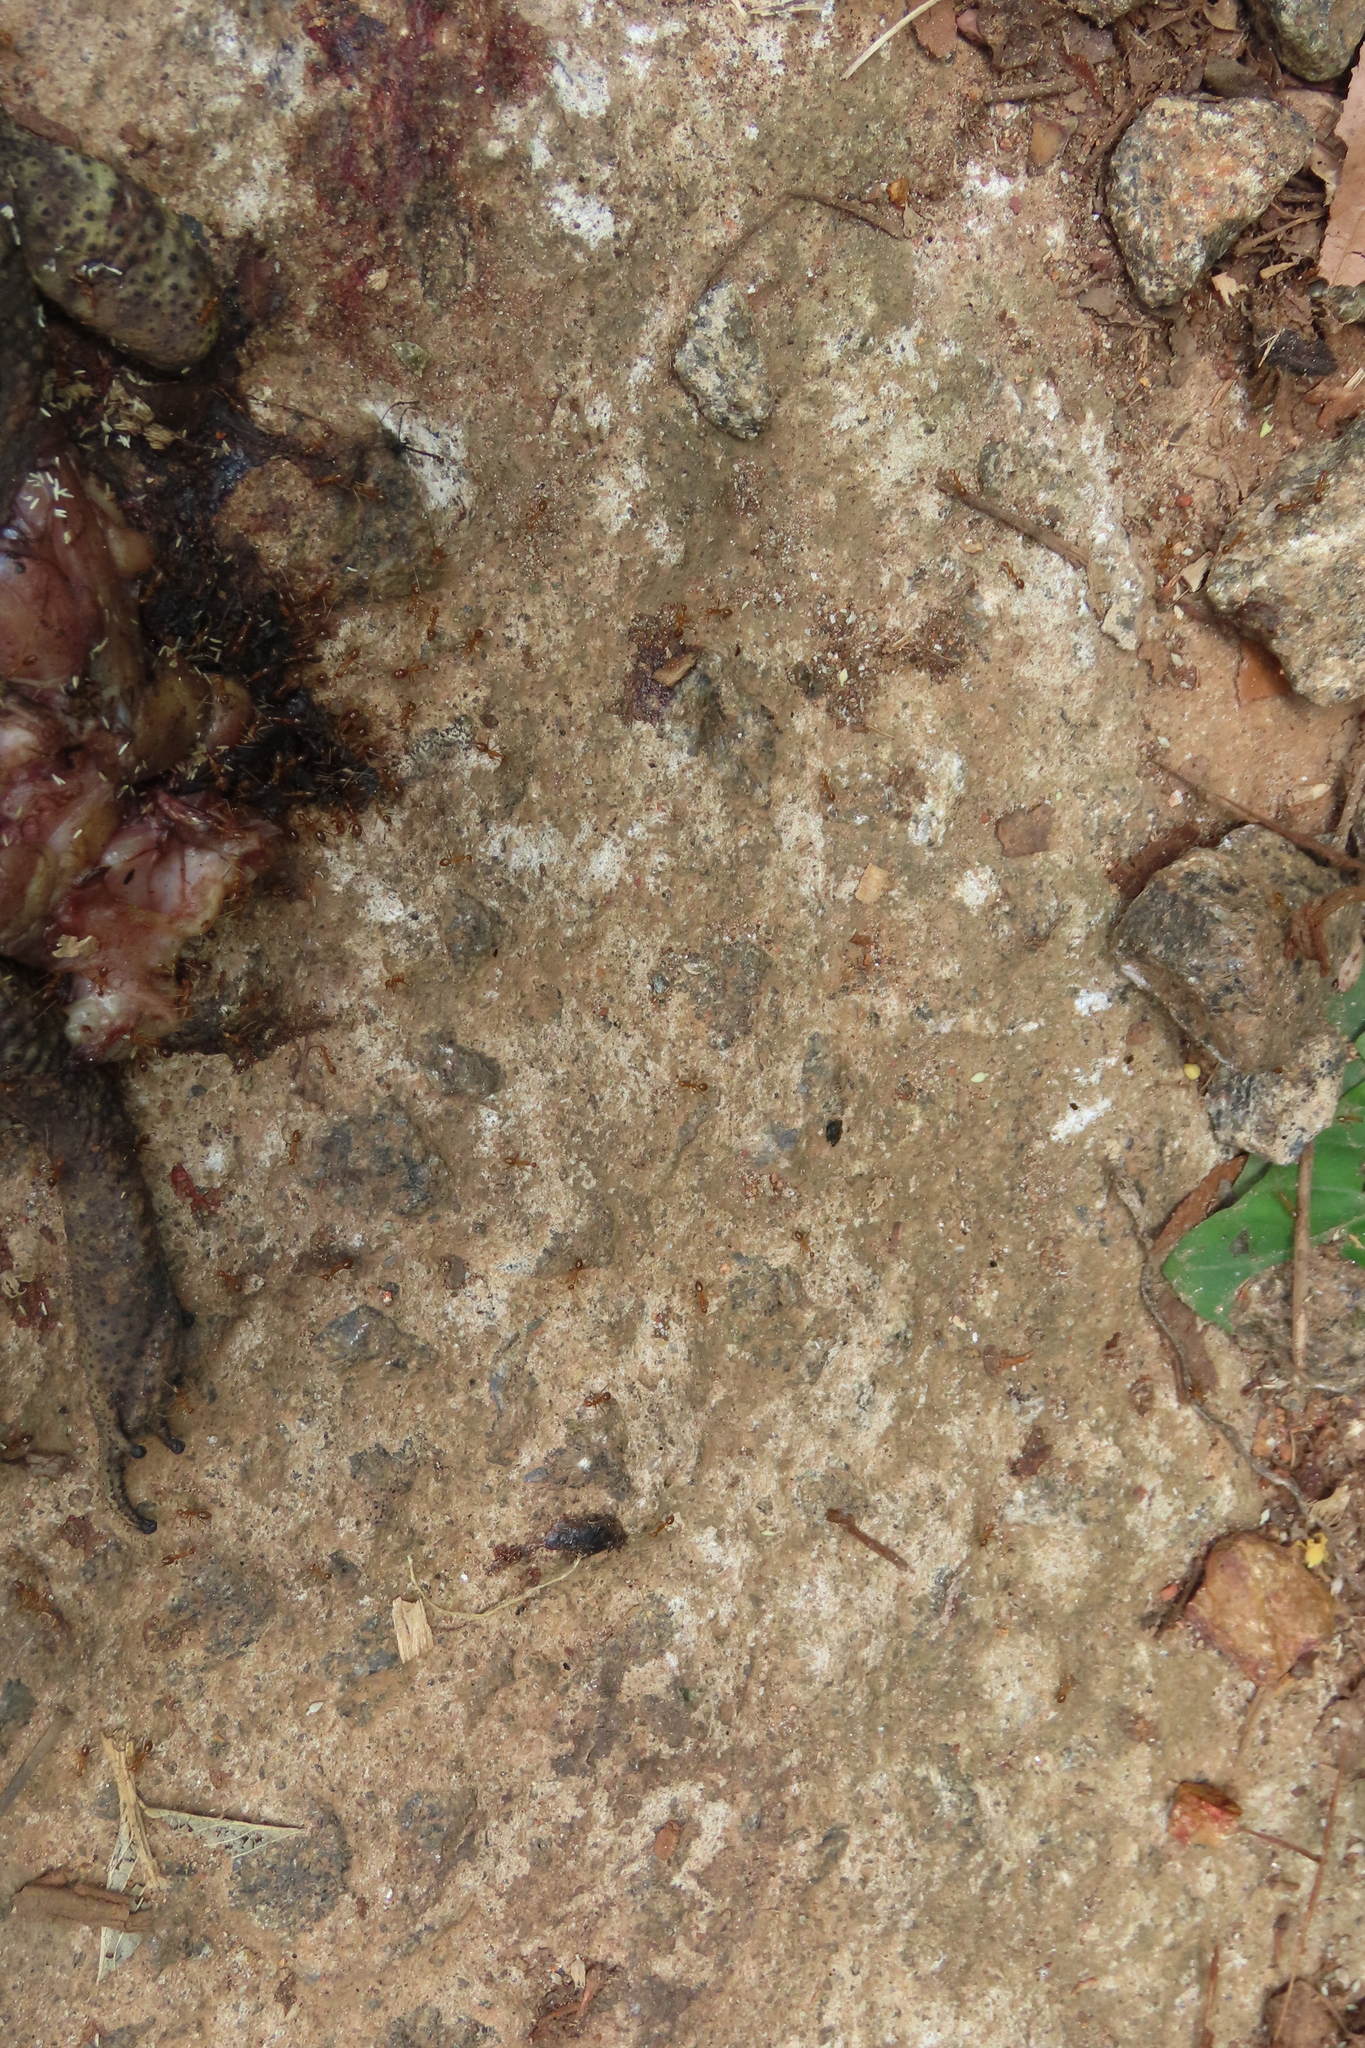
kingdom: Animalia
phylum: Arthropoda
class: Insecta
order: Hymenoptera
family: Formicidae
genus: Anoplolepis
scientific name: Anoplolepis gracilipes
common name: Ant
